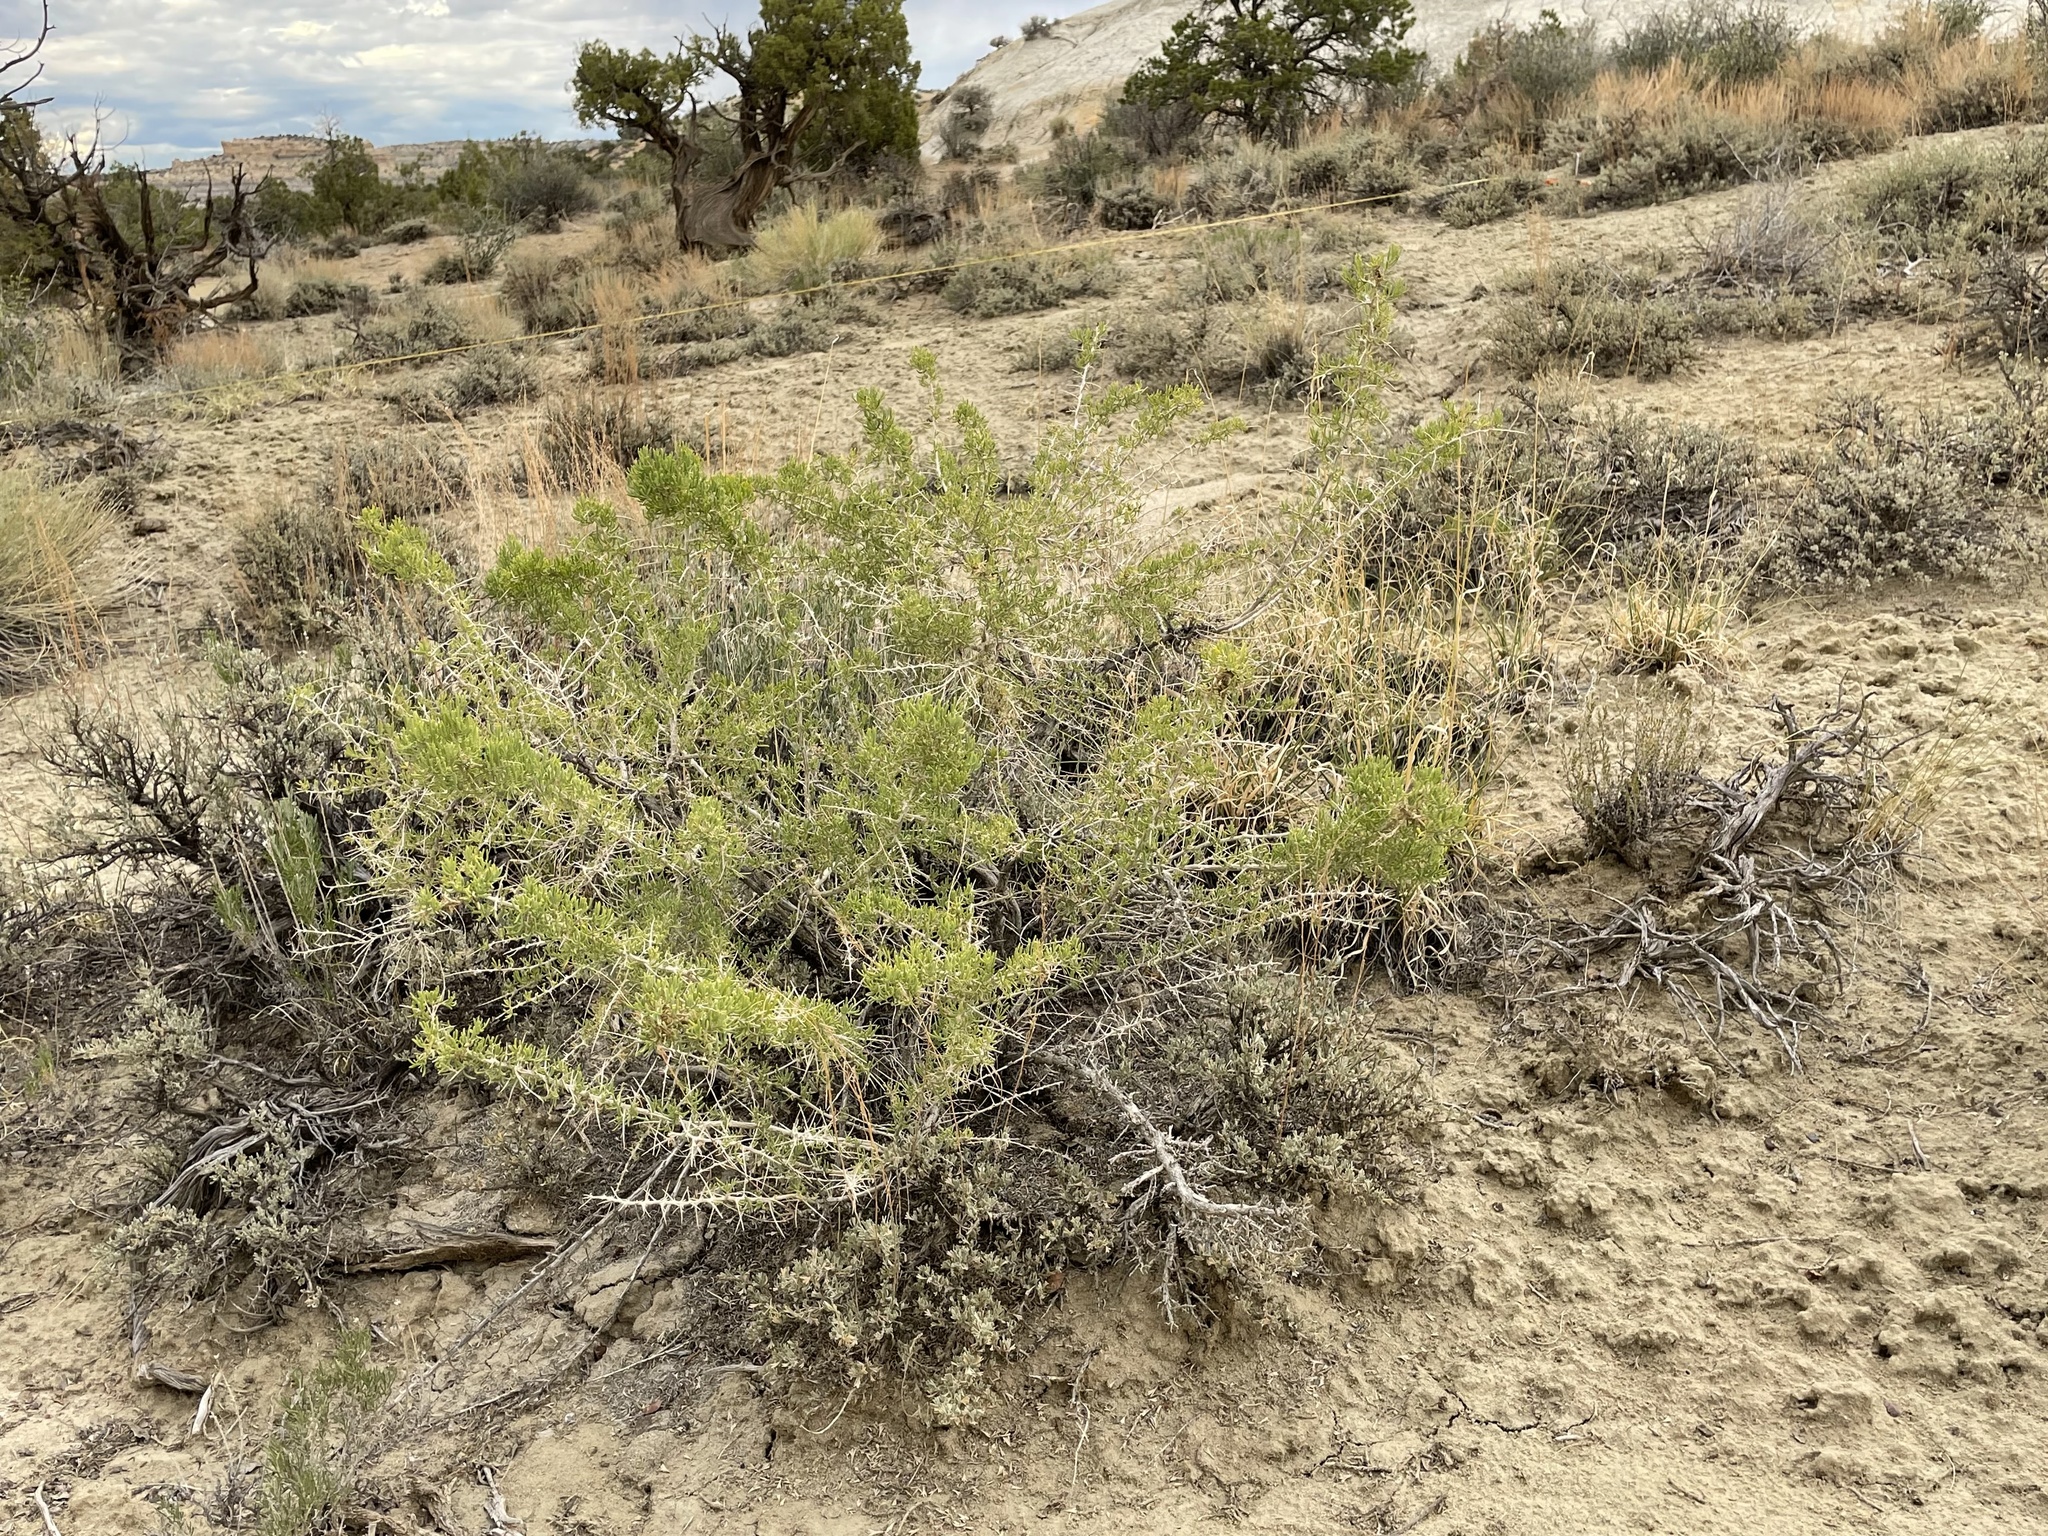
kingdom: Plantae
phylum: Tracheophyta
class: Magnoliopsida
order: Caryophyllales
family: Sarcobataceae
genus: Sarcobatus
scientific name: Sarcobatus vermiculatus
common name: Greasewood
